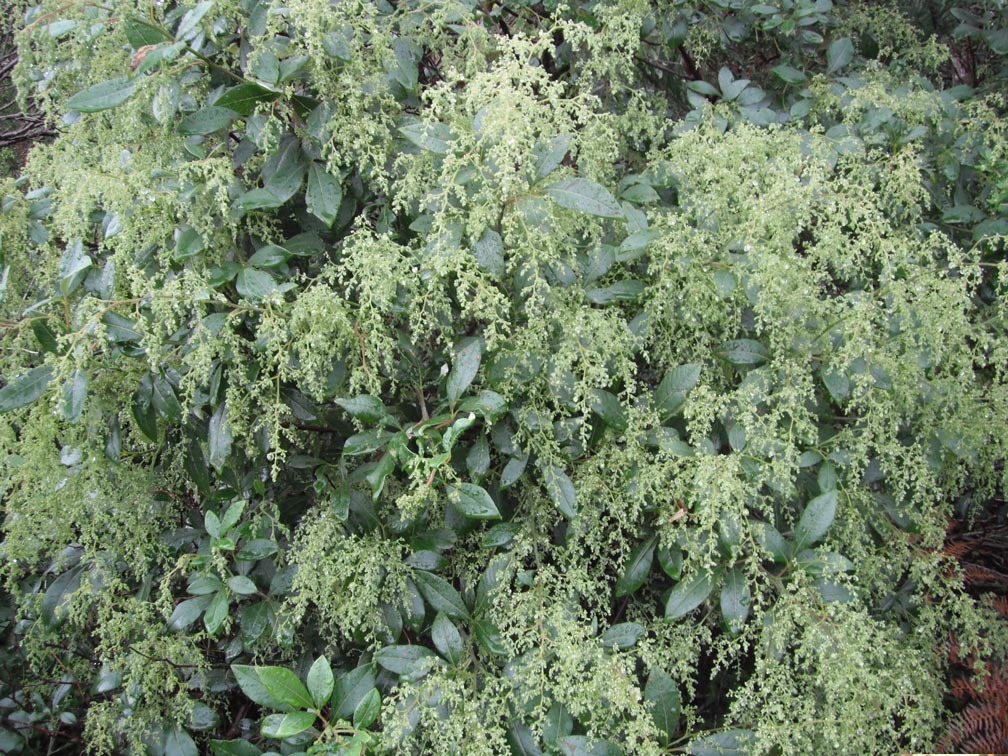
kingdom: Plantae
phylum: Tracheophyta
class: Magnoliopsida
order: Sapindales
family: Anacardiaceae
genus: Searsia
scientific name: Searsia tomentosa
